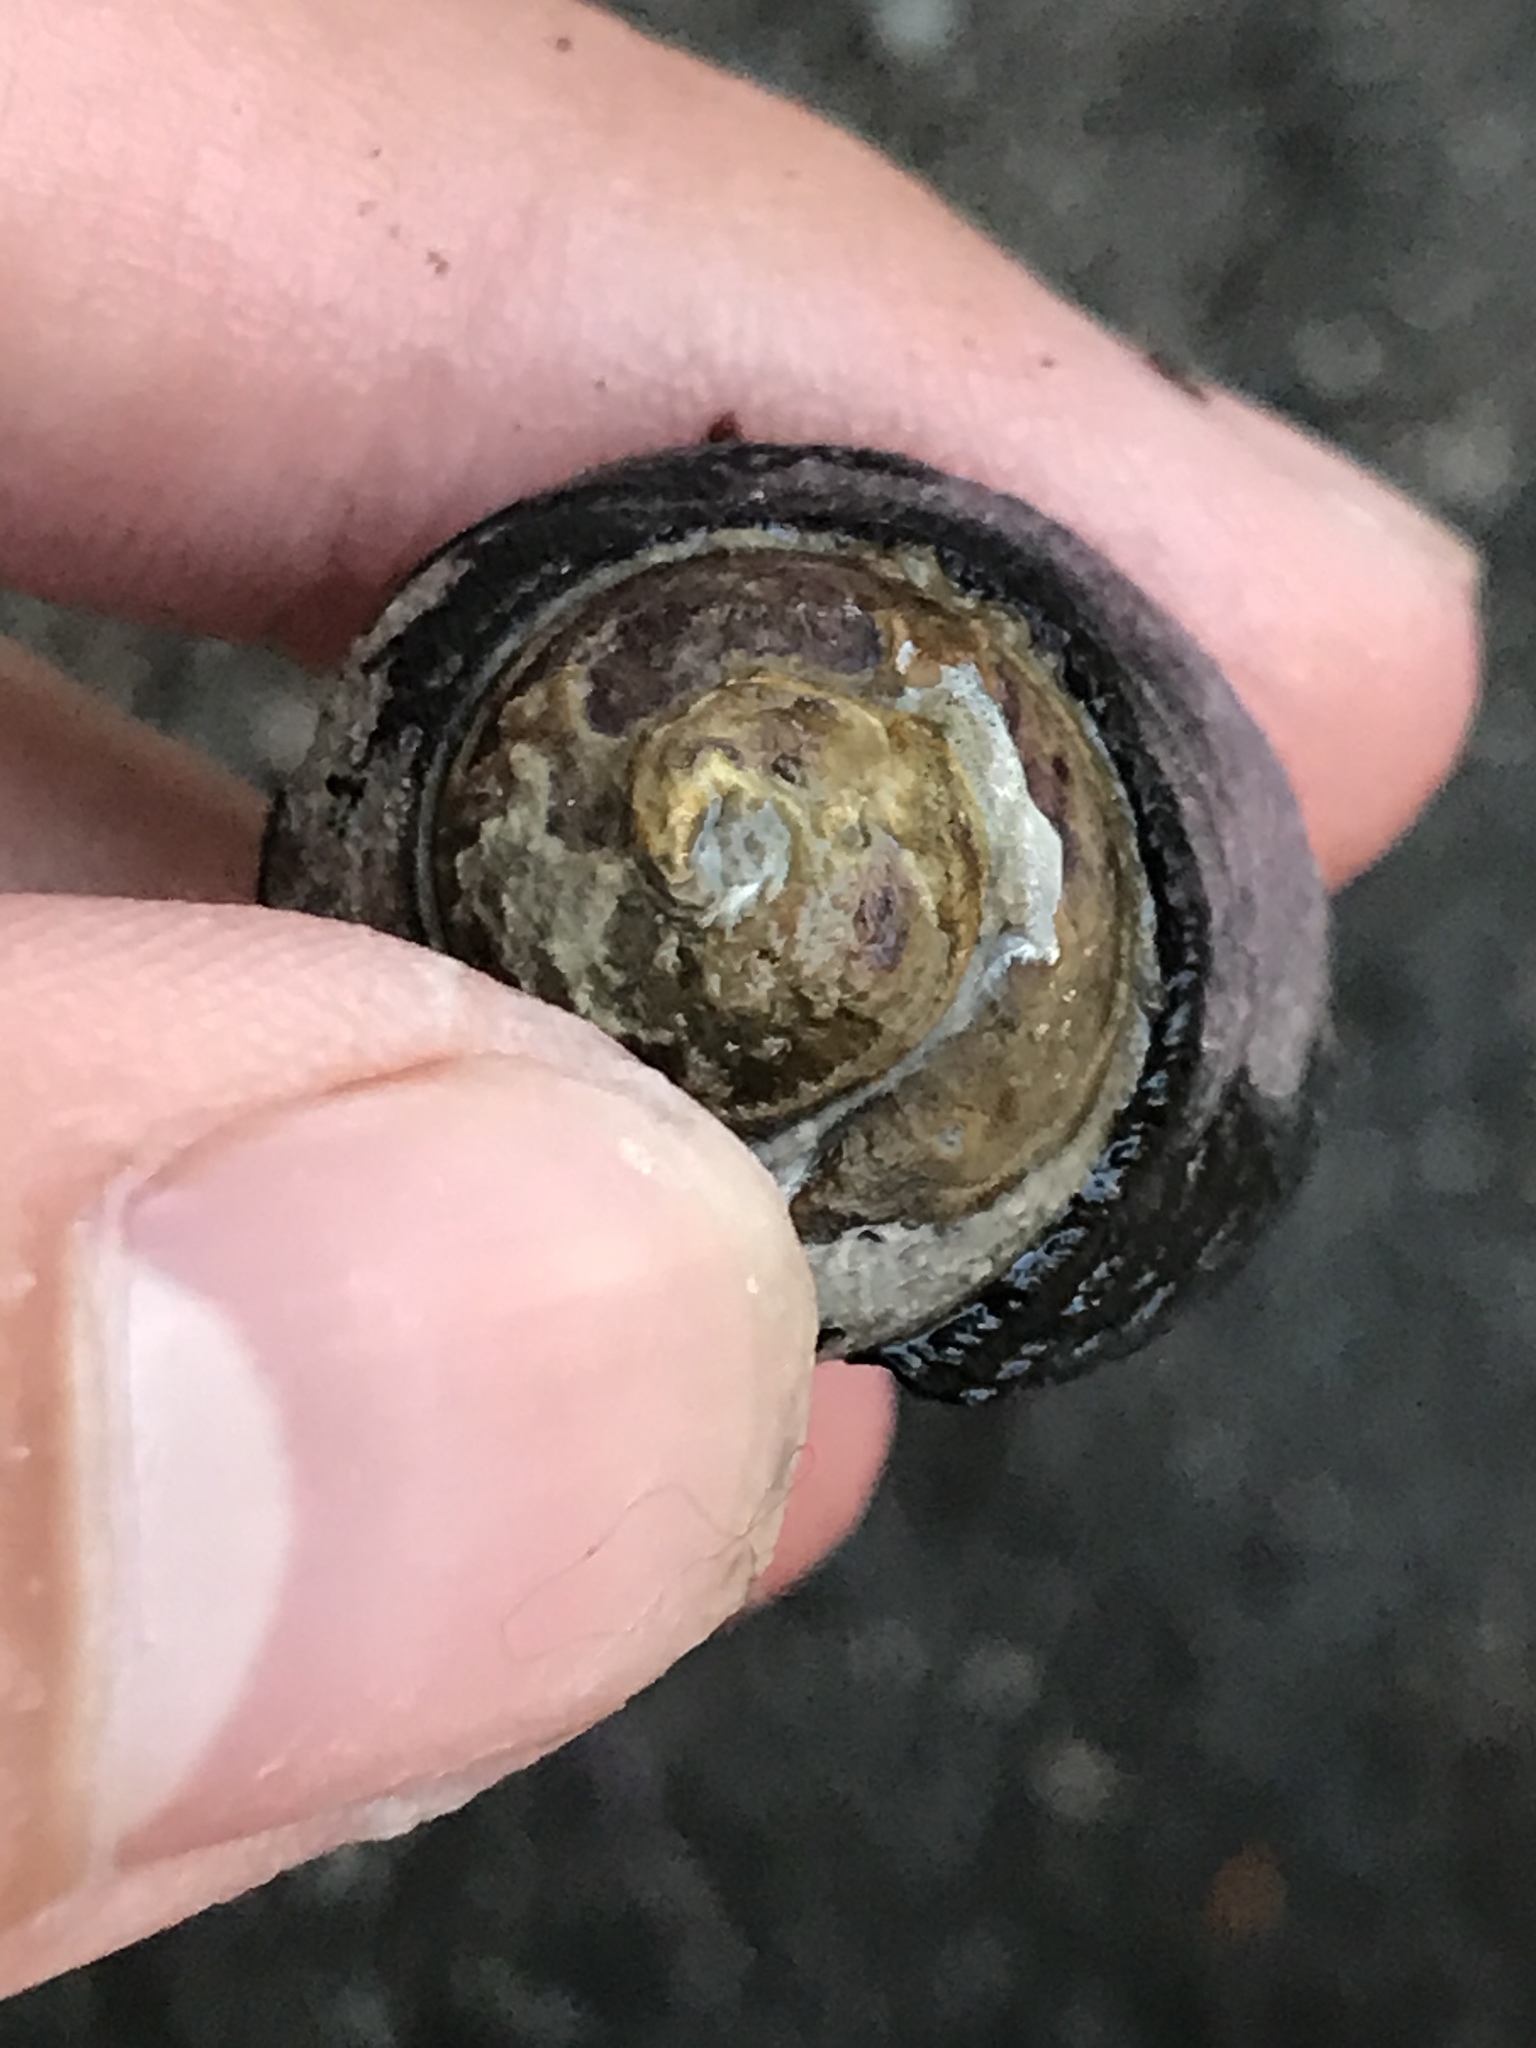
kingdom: Animalia
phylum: Mollusca
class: Gastropoda
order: Trochida
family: Tegulidae
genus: Tegula
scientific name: Tegula funebralis
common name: Black tegula
